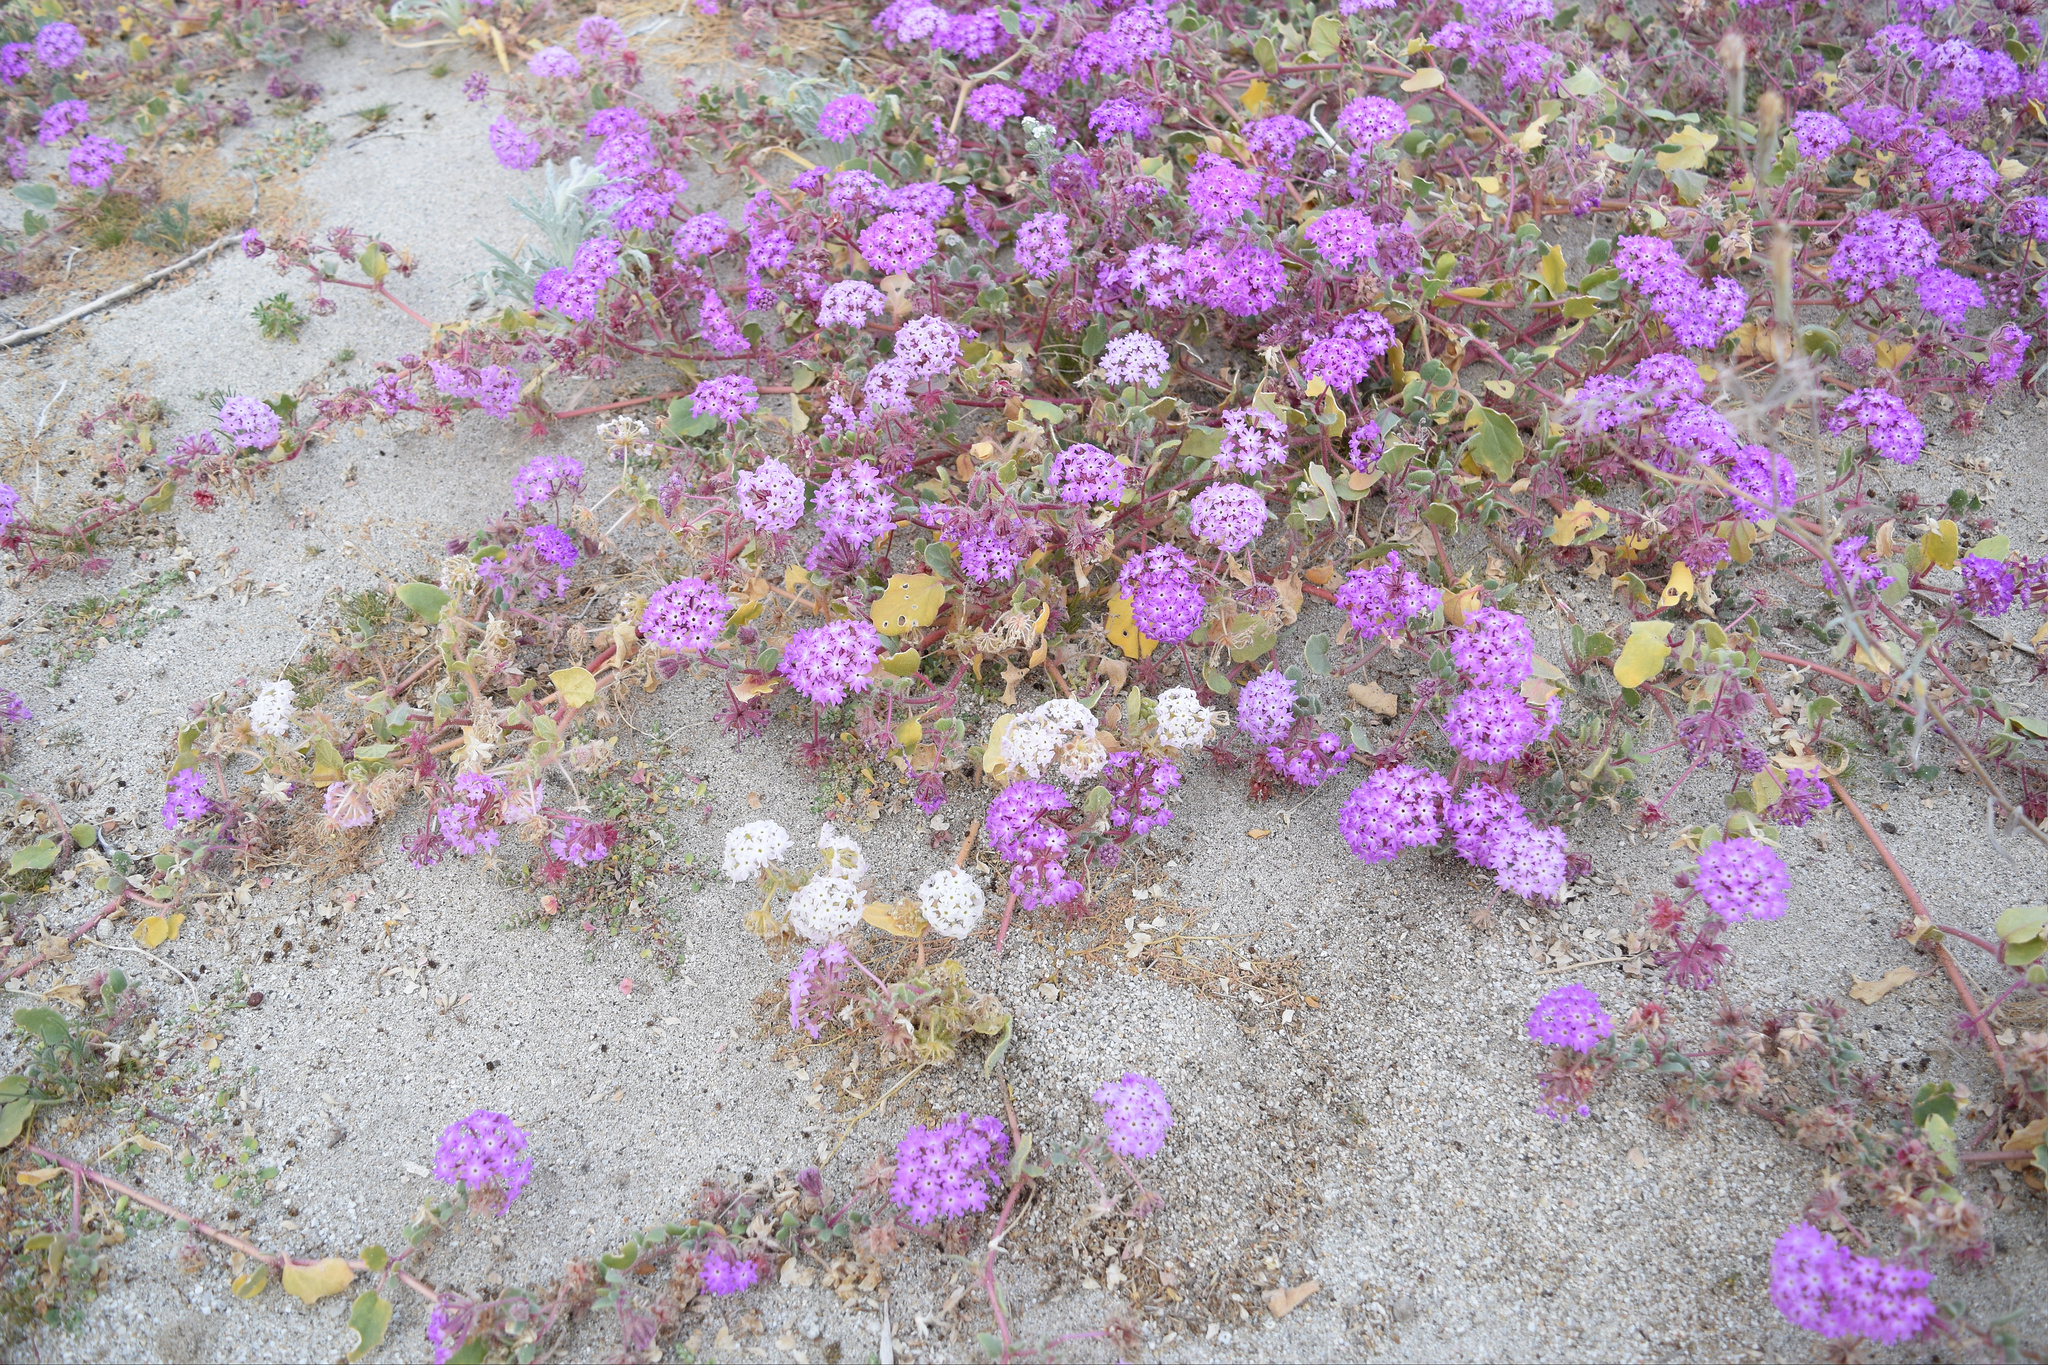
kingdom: Plantae
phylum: Tracheophyta
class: Magnoliopsida
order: Caryophyllales
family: Nyctaginaceae
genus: Abronia
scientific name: Abronia villosa
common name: Desert sand-verbena
